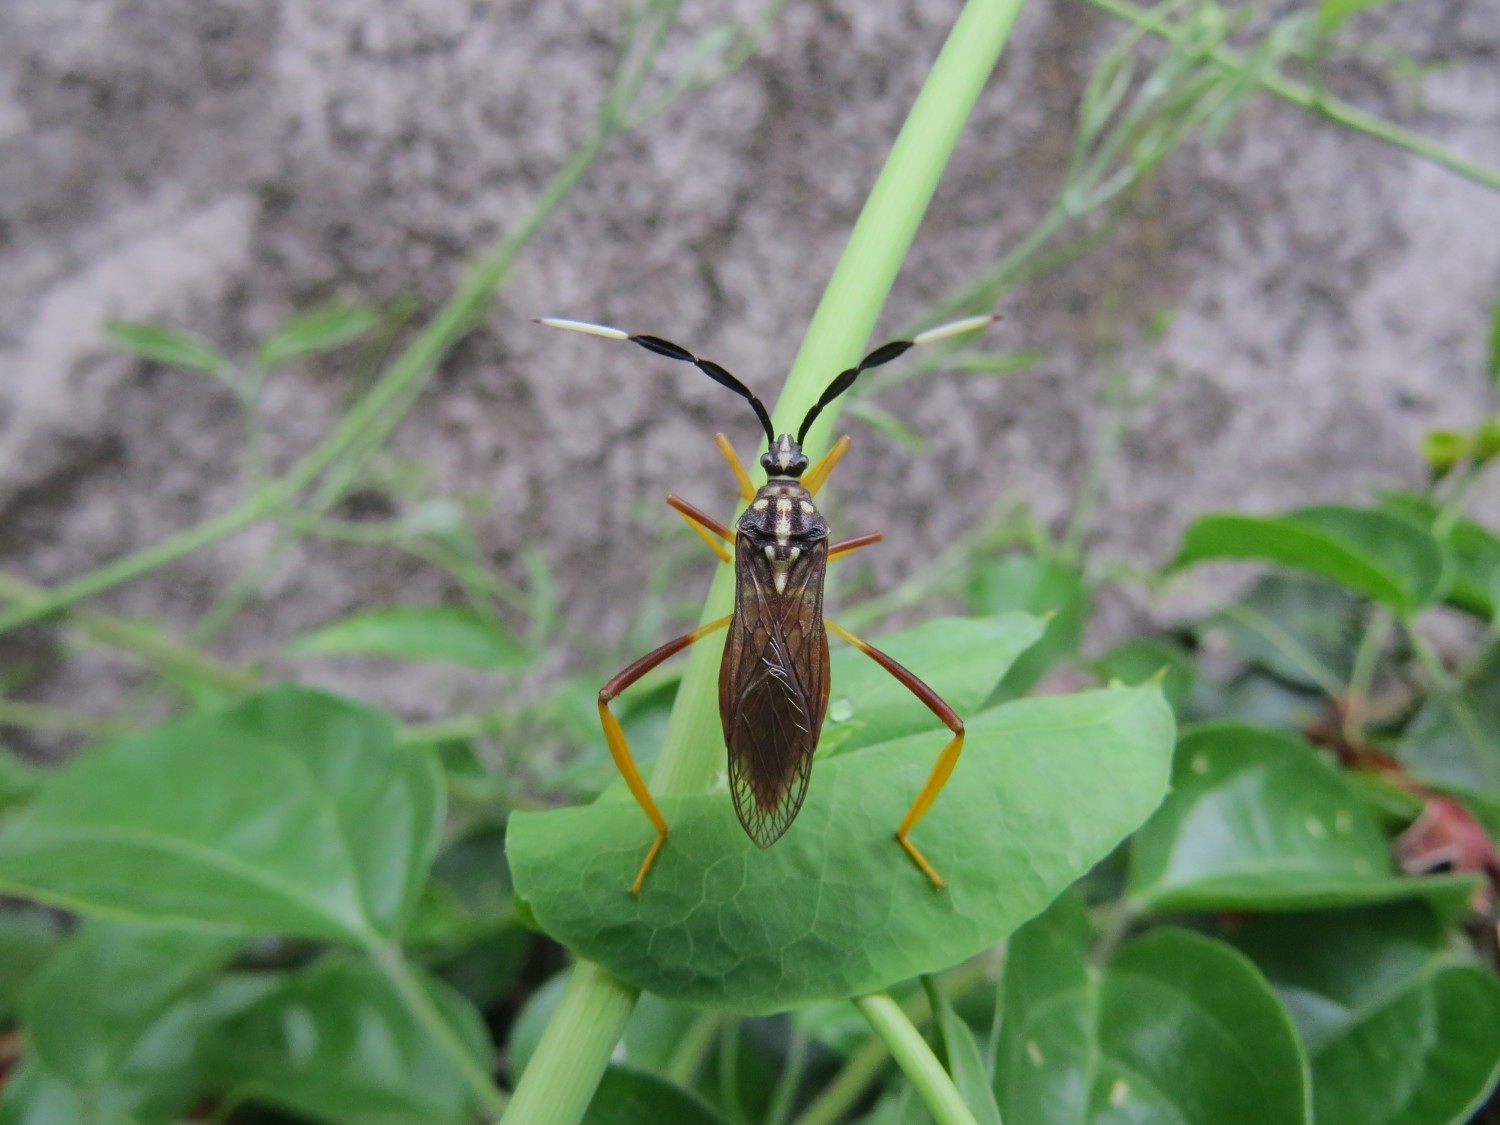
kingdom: Animalia
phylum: Arthropoda
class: Insecta
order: Hemiptera
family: Coreidae
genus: Holhymenia
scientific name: Holhymenia histrio
